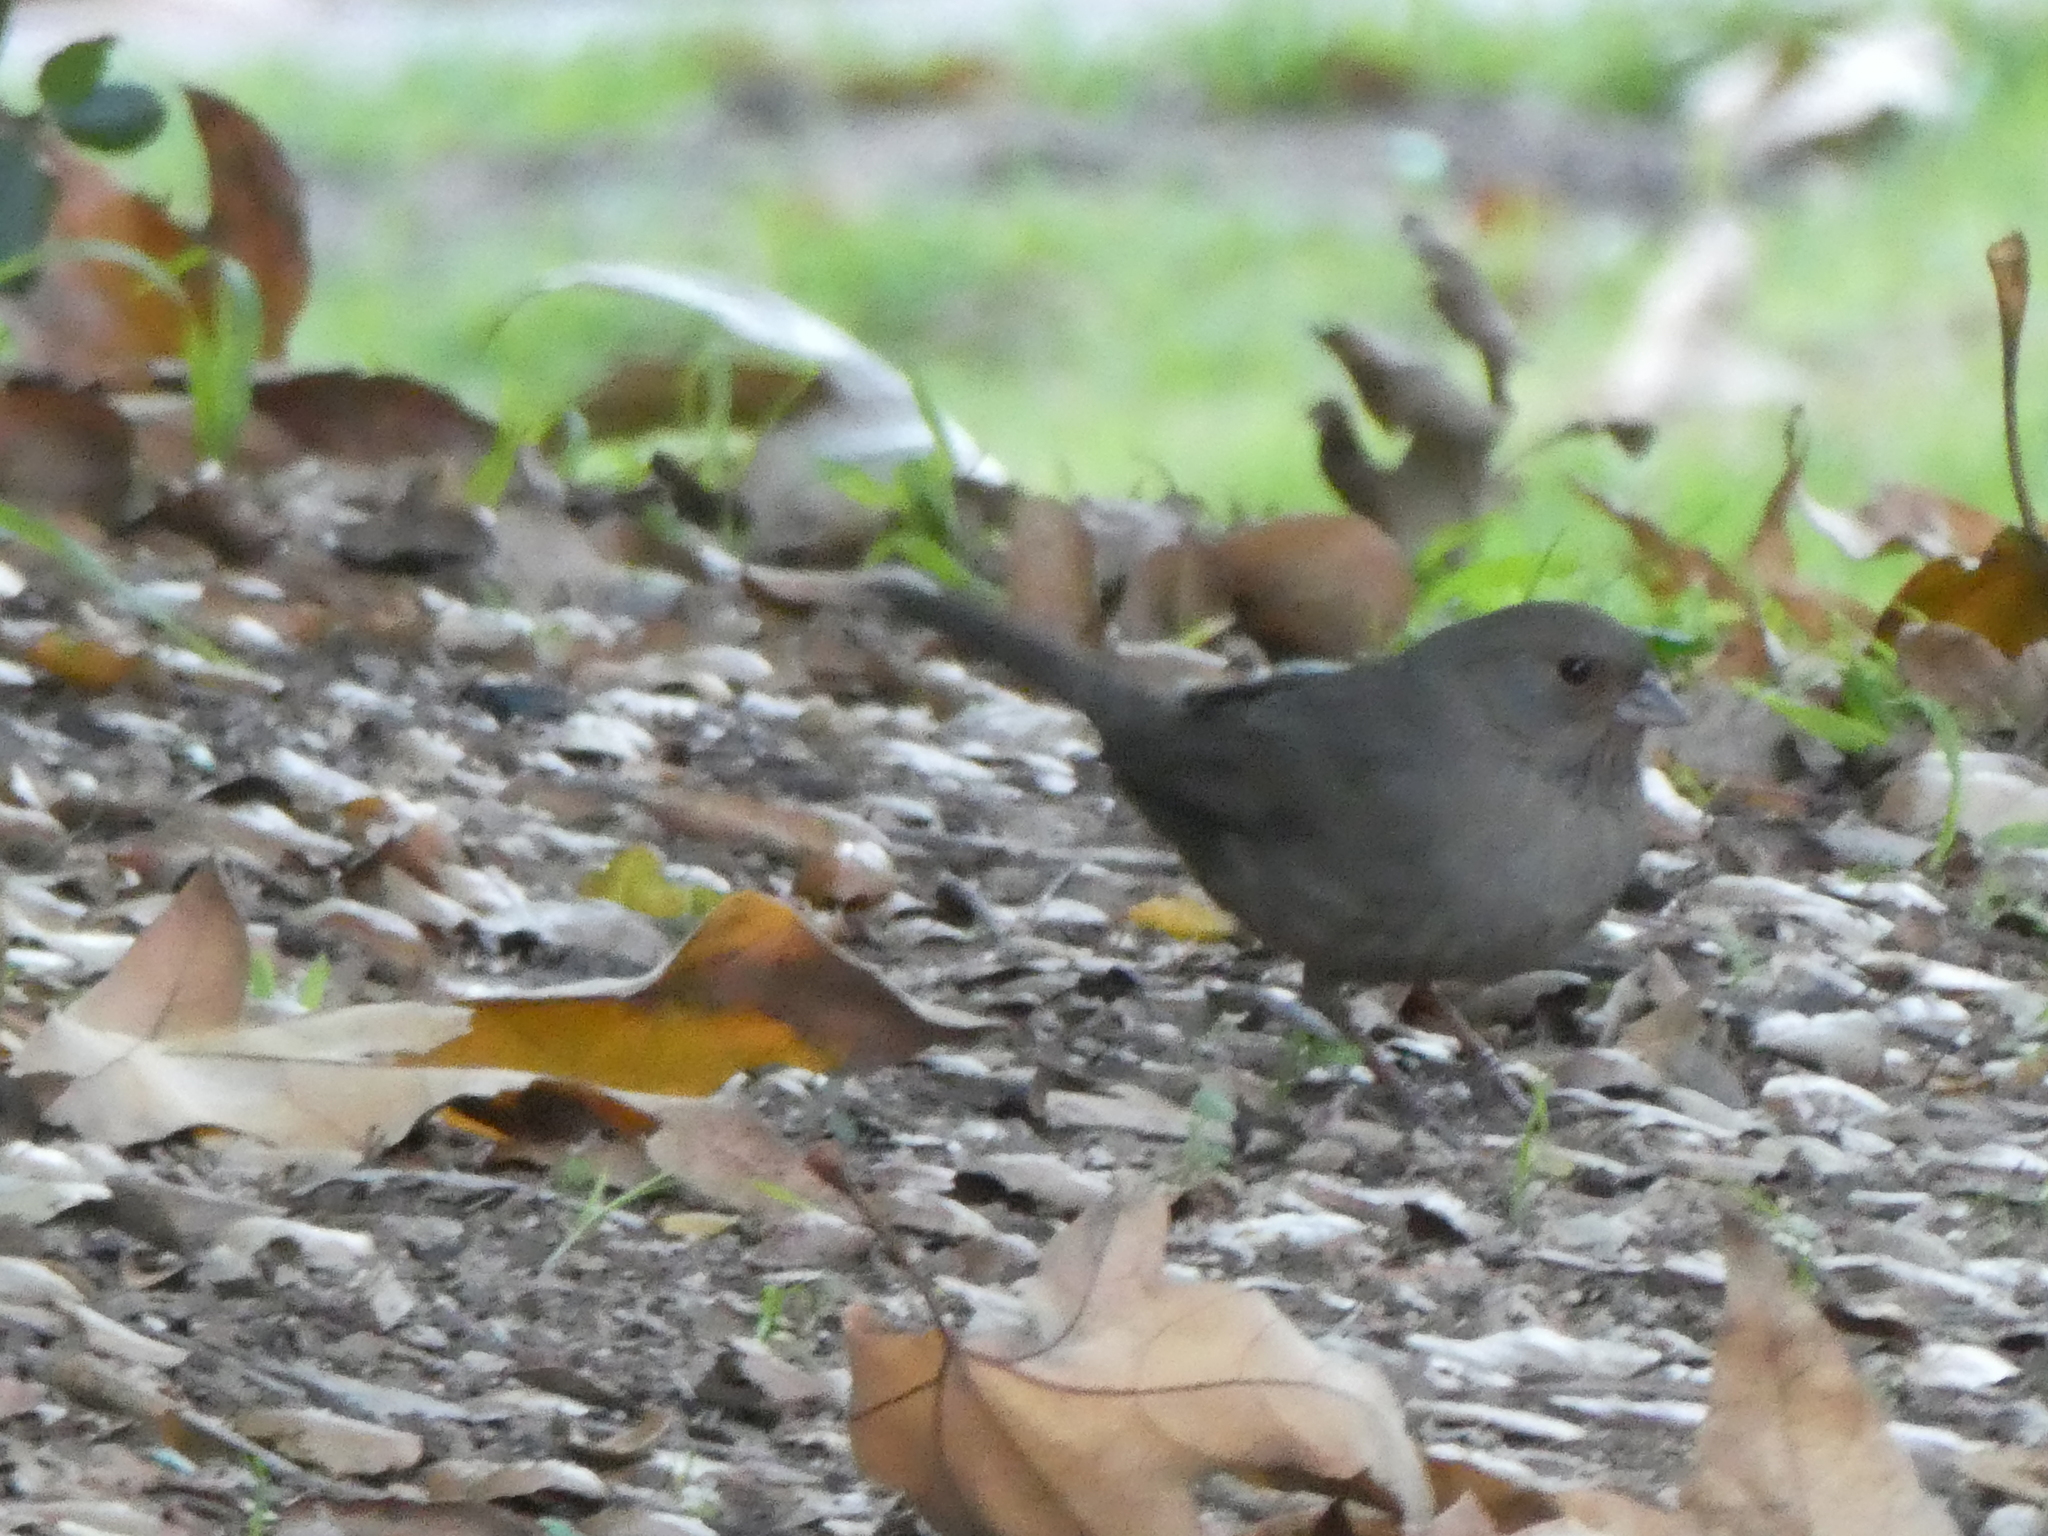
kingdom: Animalia
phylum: Chordata
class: Aves
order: Passeriformes
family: Passerellidae
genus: Melozone
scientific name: Melozone crissalis
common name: California towhee
